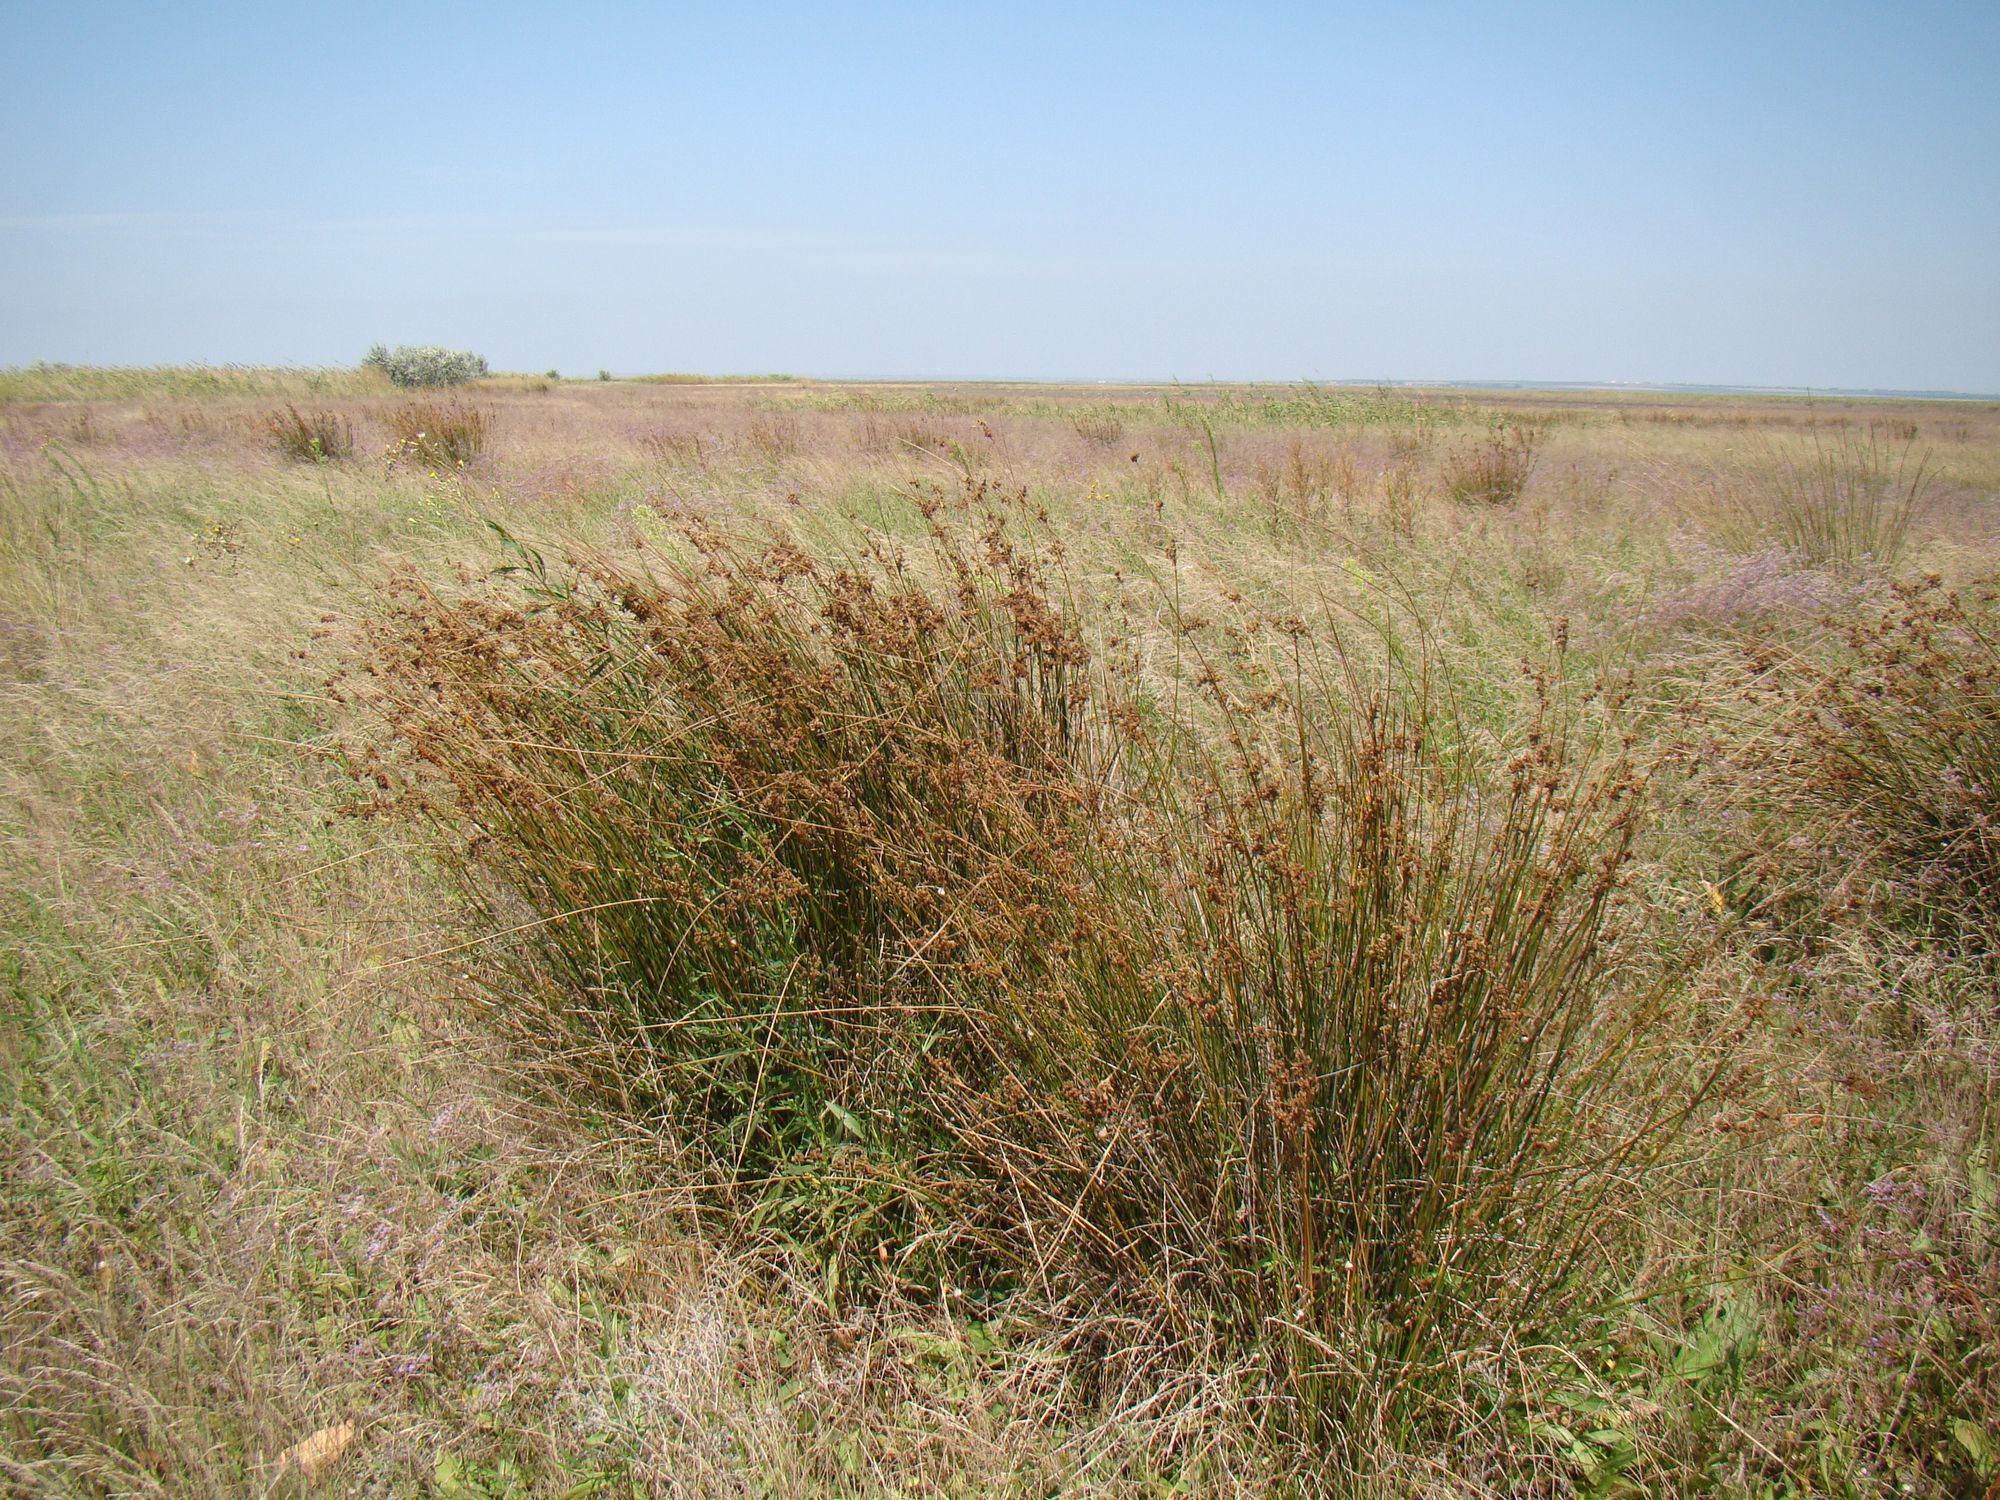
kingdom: Plantae
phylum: Tracheophyta
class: Liliopsida
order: Poales
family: Juncaceae
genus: Juncus
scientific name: Juncus maritimus
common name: Sea rush
